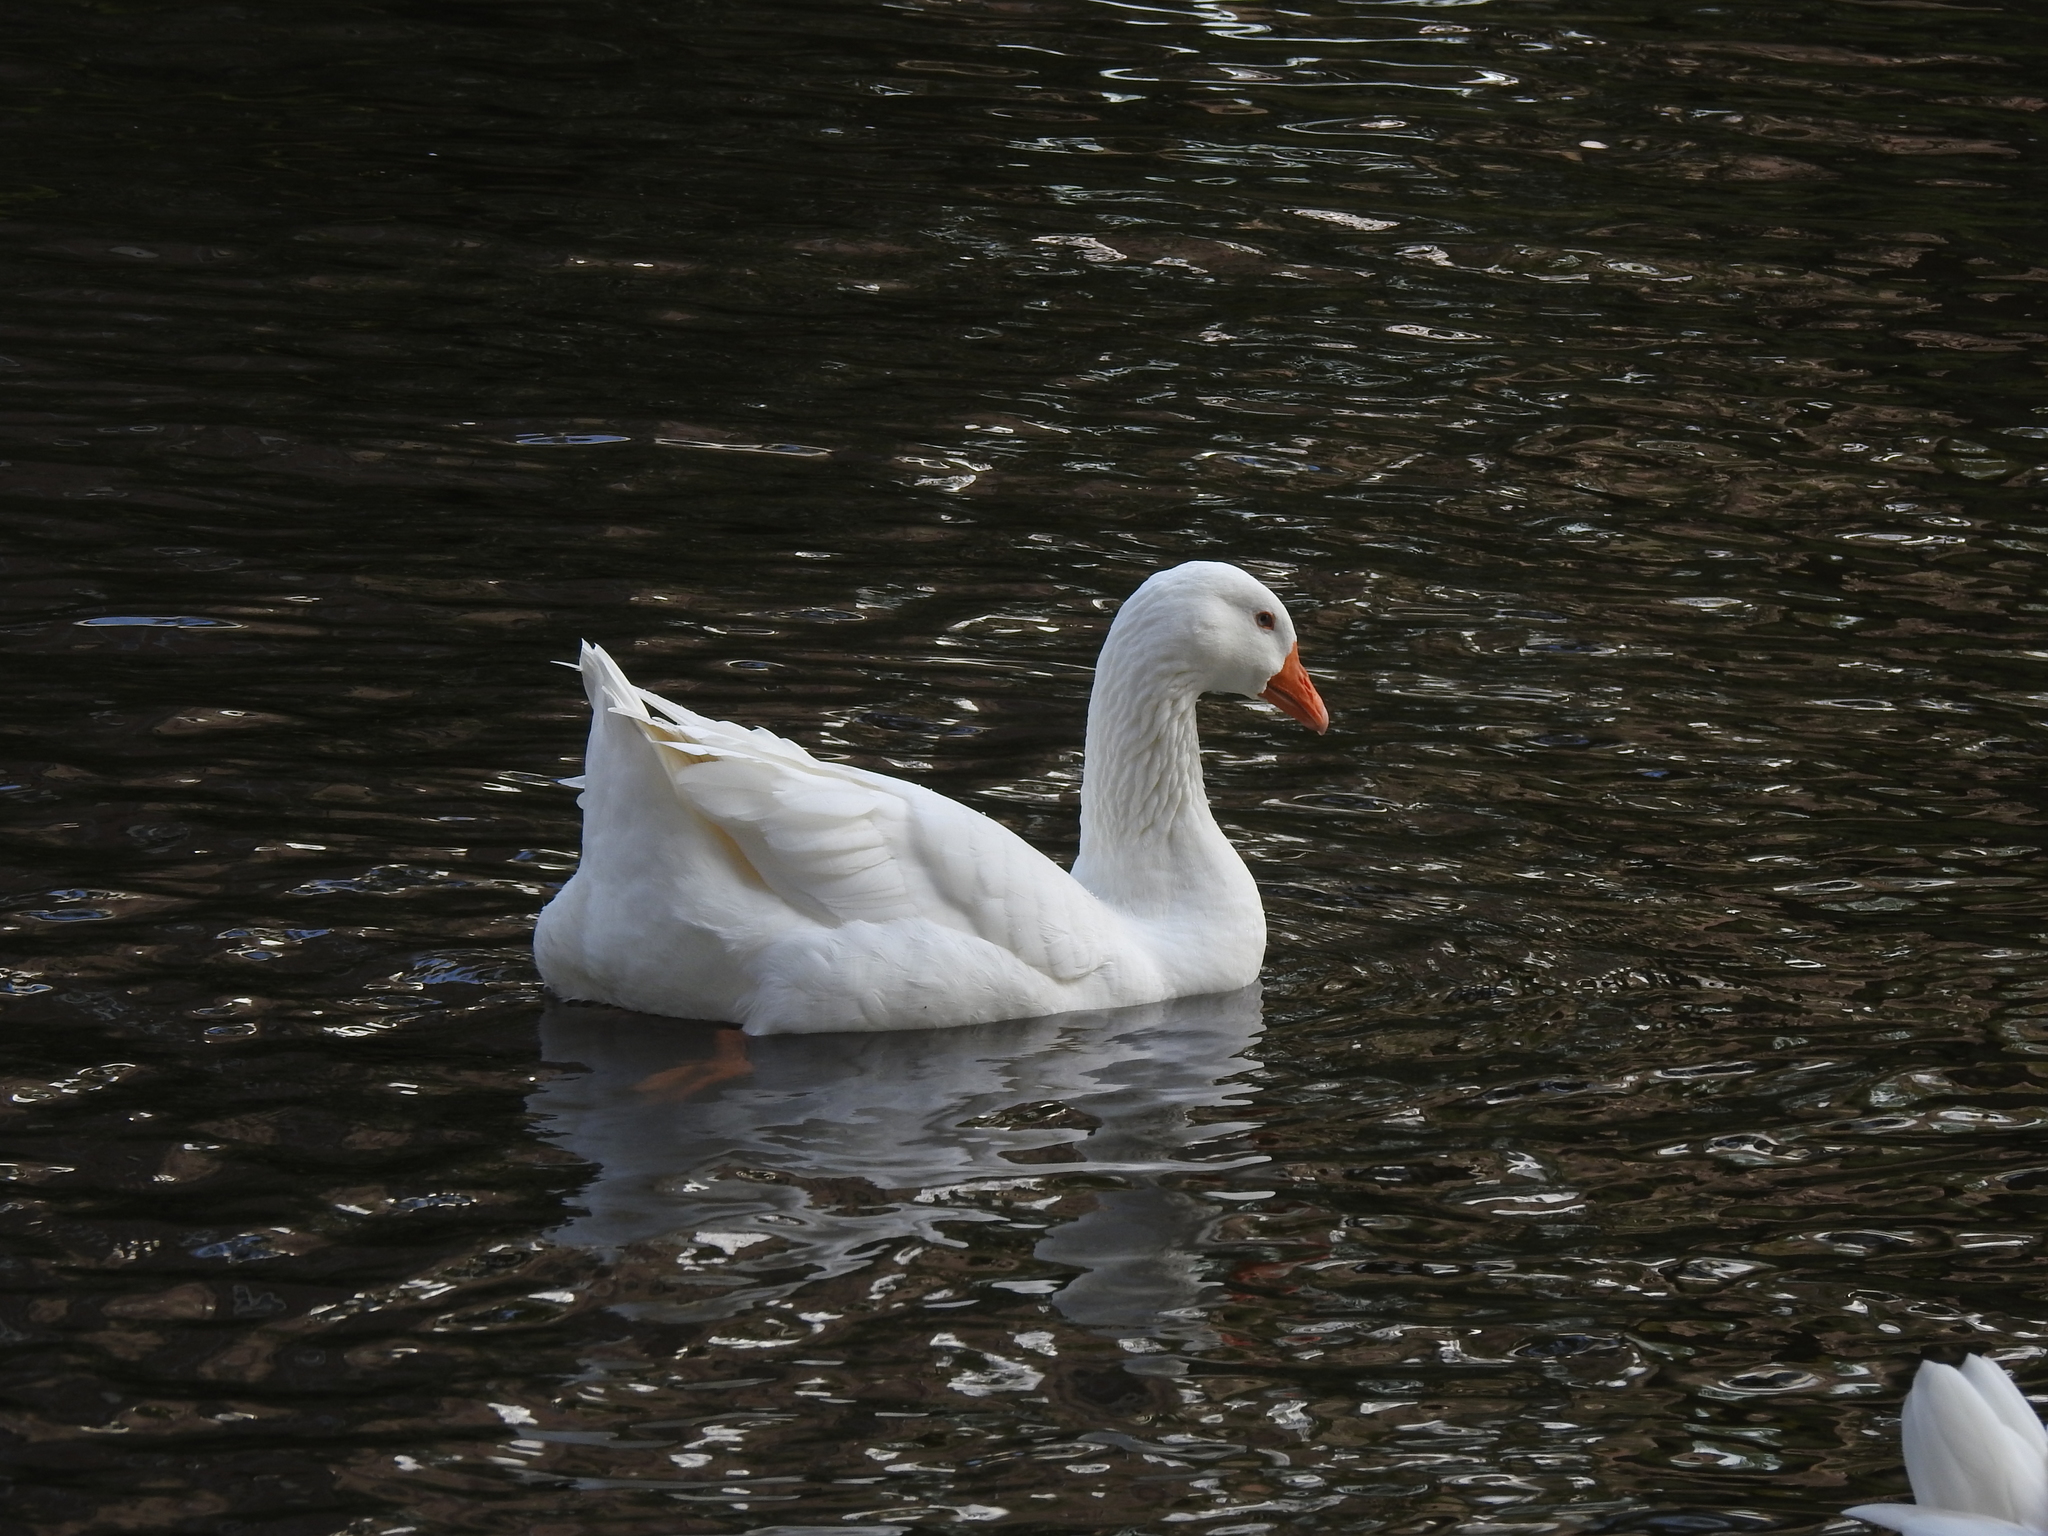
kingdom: Animalia
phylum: Chordata
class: Aves
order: Anseriformes
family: Anatidae
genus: Anser
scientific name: Anser anser
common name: Greylag goose
